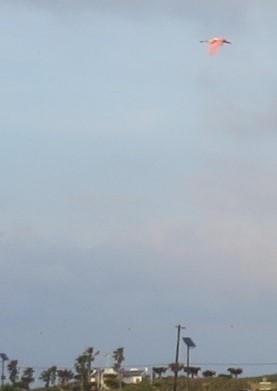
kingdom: Animalia
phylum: Chordata
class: Aves
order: Pelecaniformes
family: Threskiornithidae
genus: Platalea
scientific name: Platalea ajaja
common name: Roseate spoonbill
